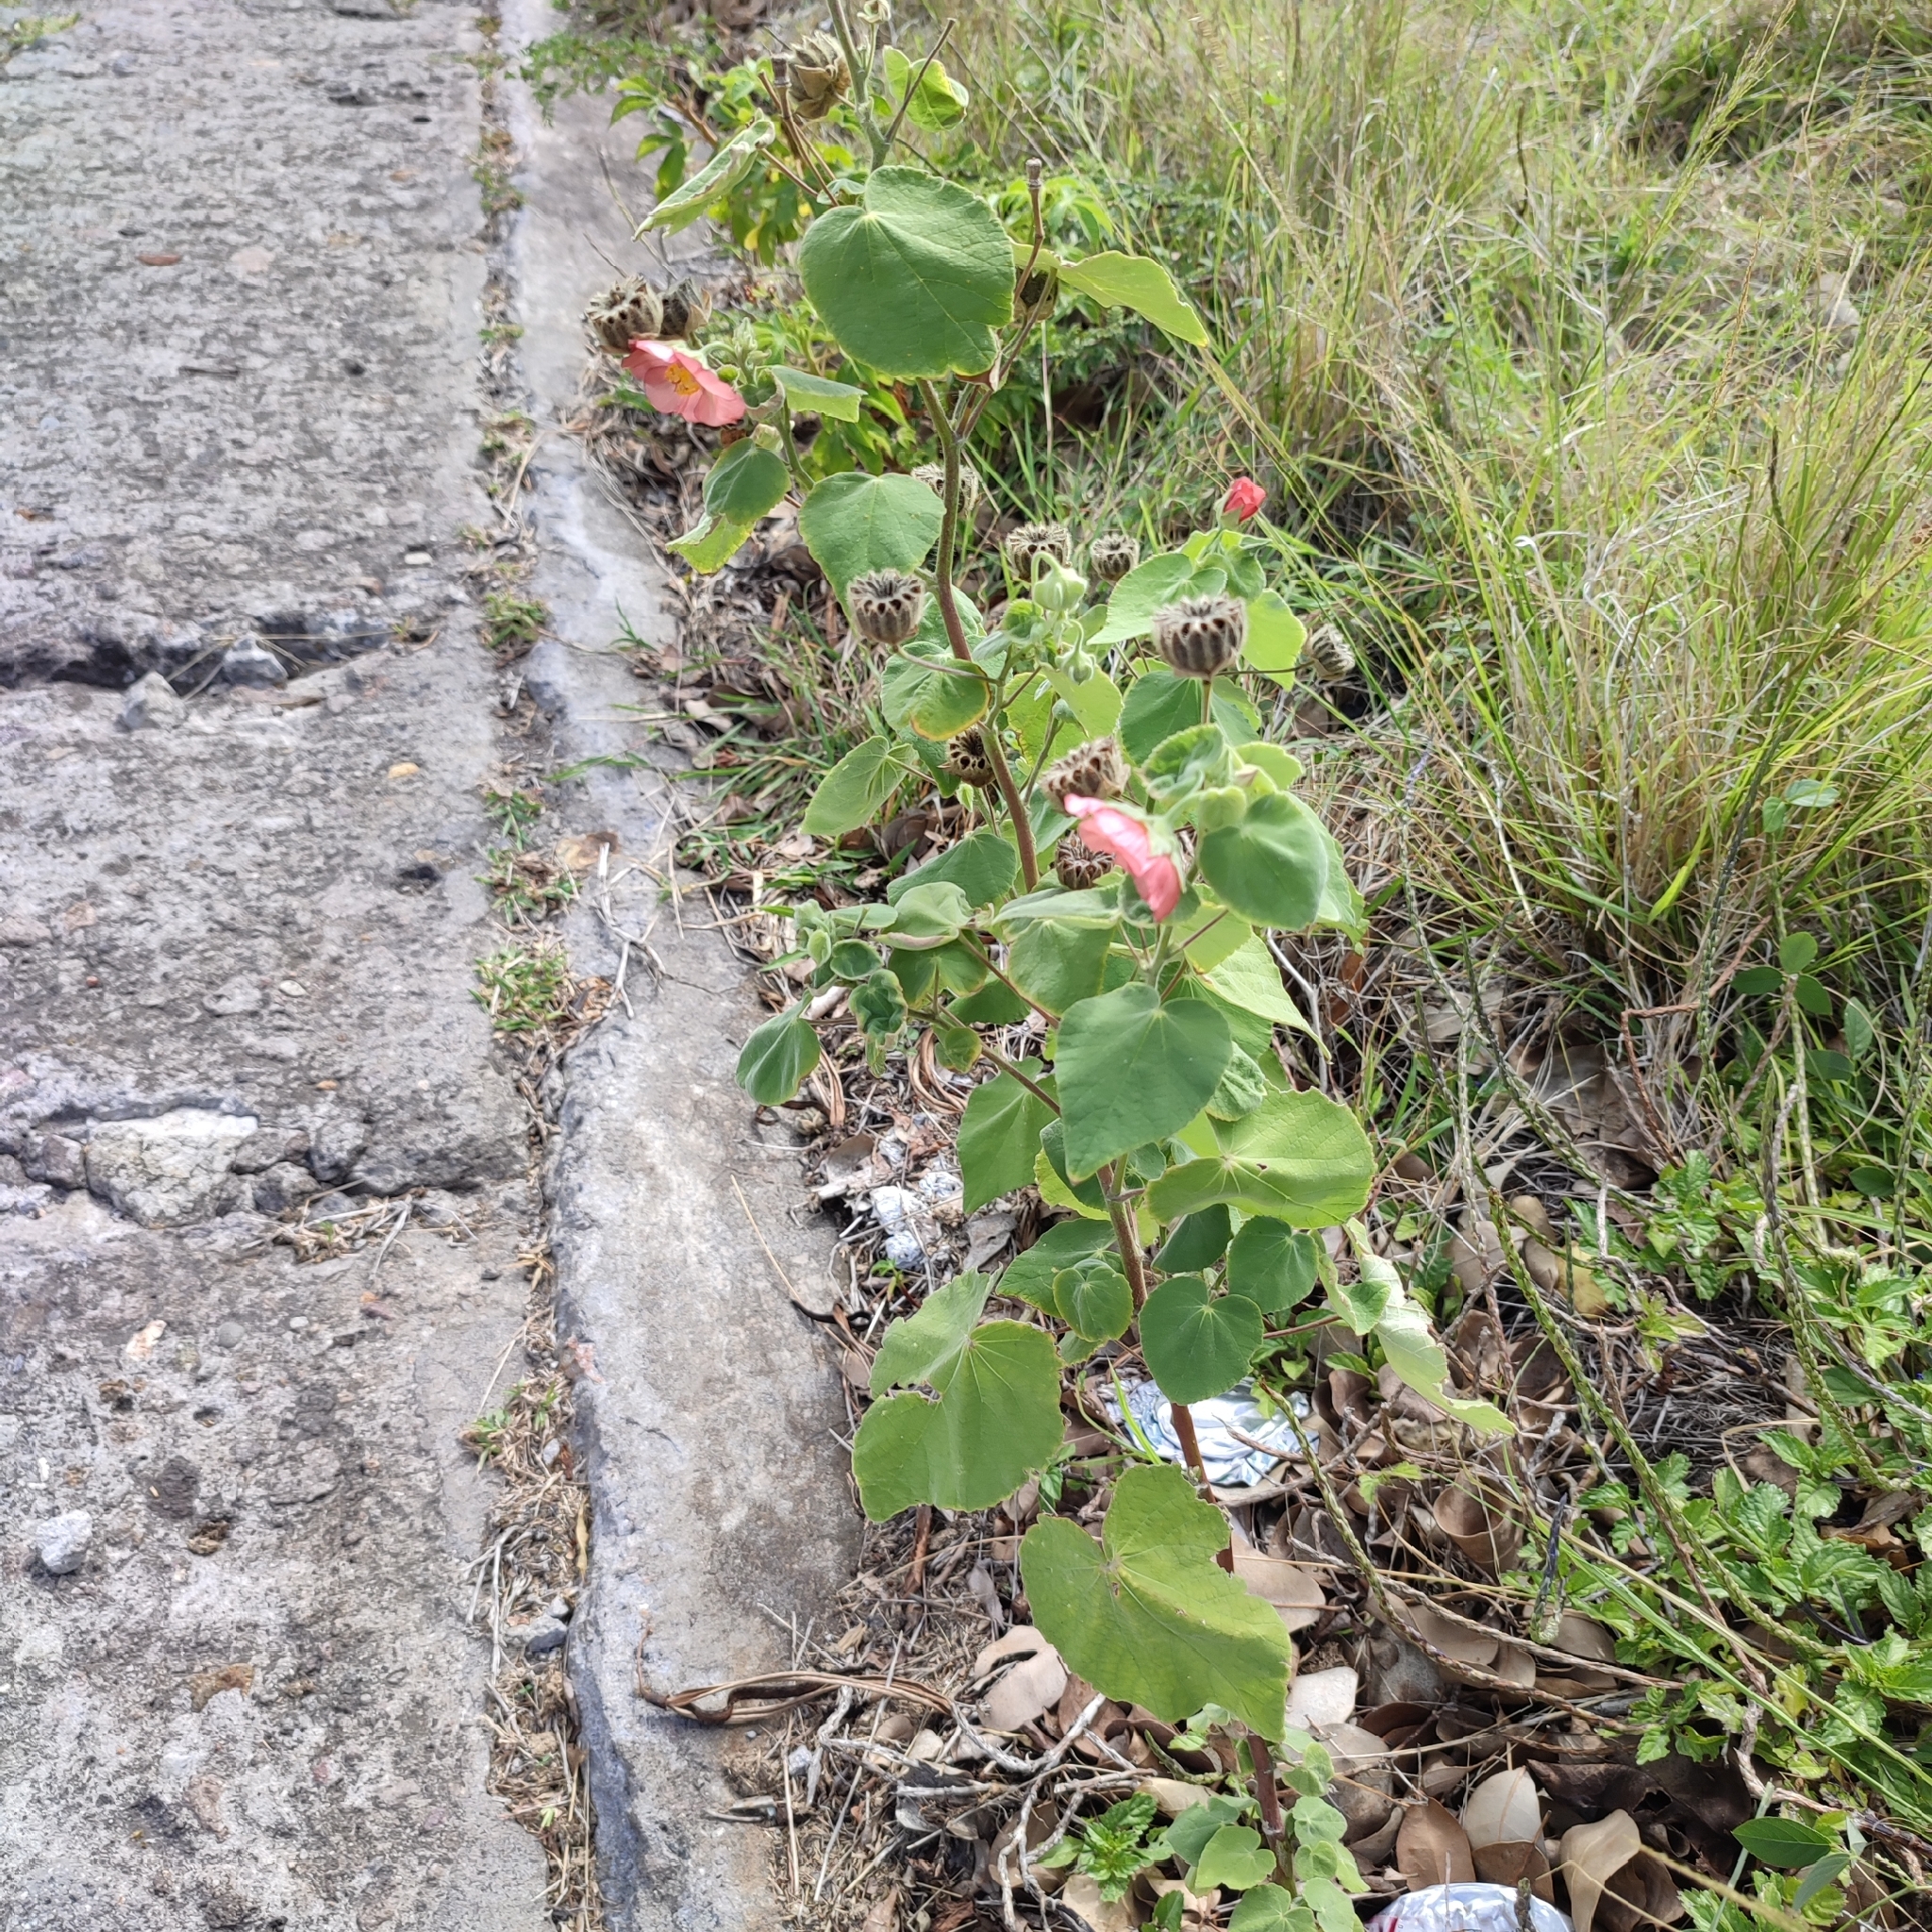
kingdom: Plantae
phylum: Tracheophyta
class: Magnoliopsida
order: Malvales
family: Malvaceae
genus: Abutilon
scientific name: Abutilon hulseanum
